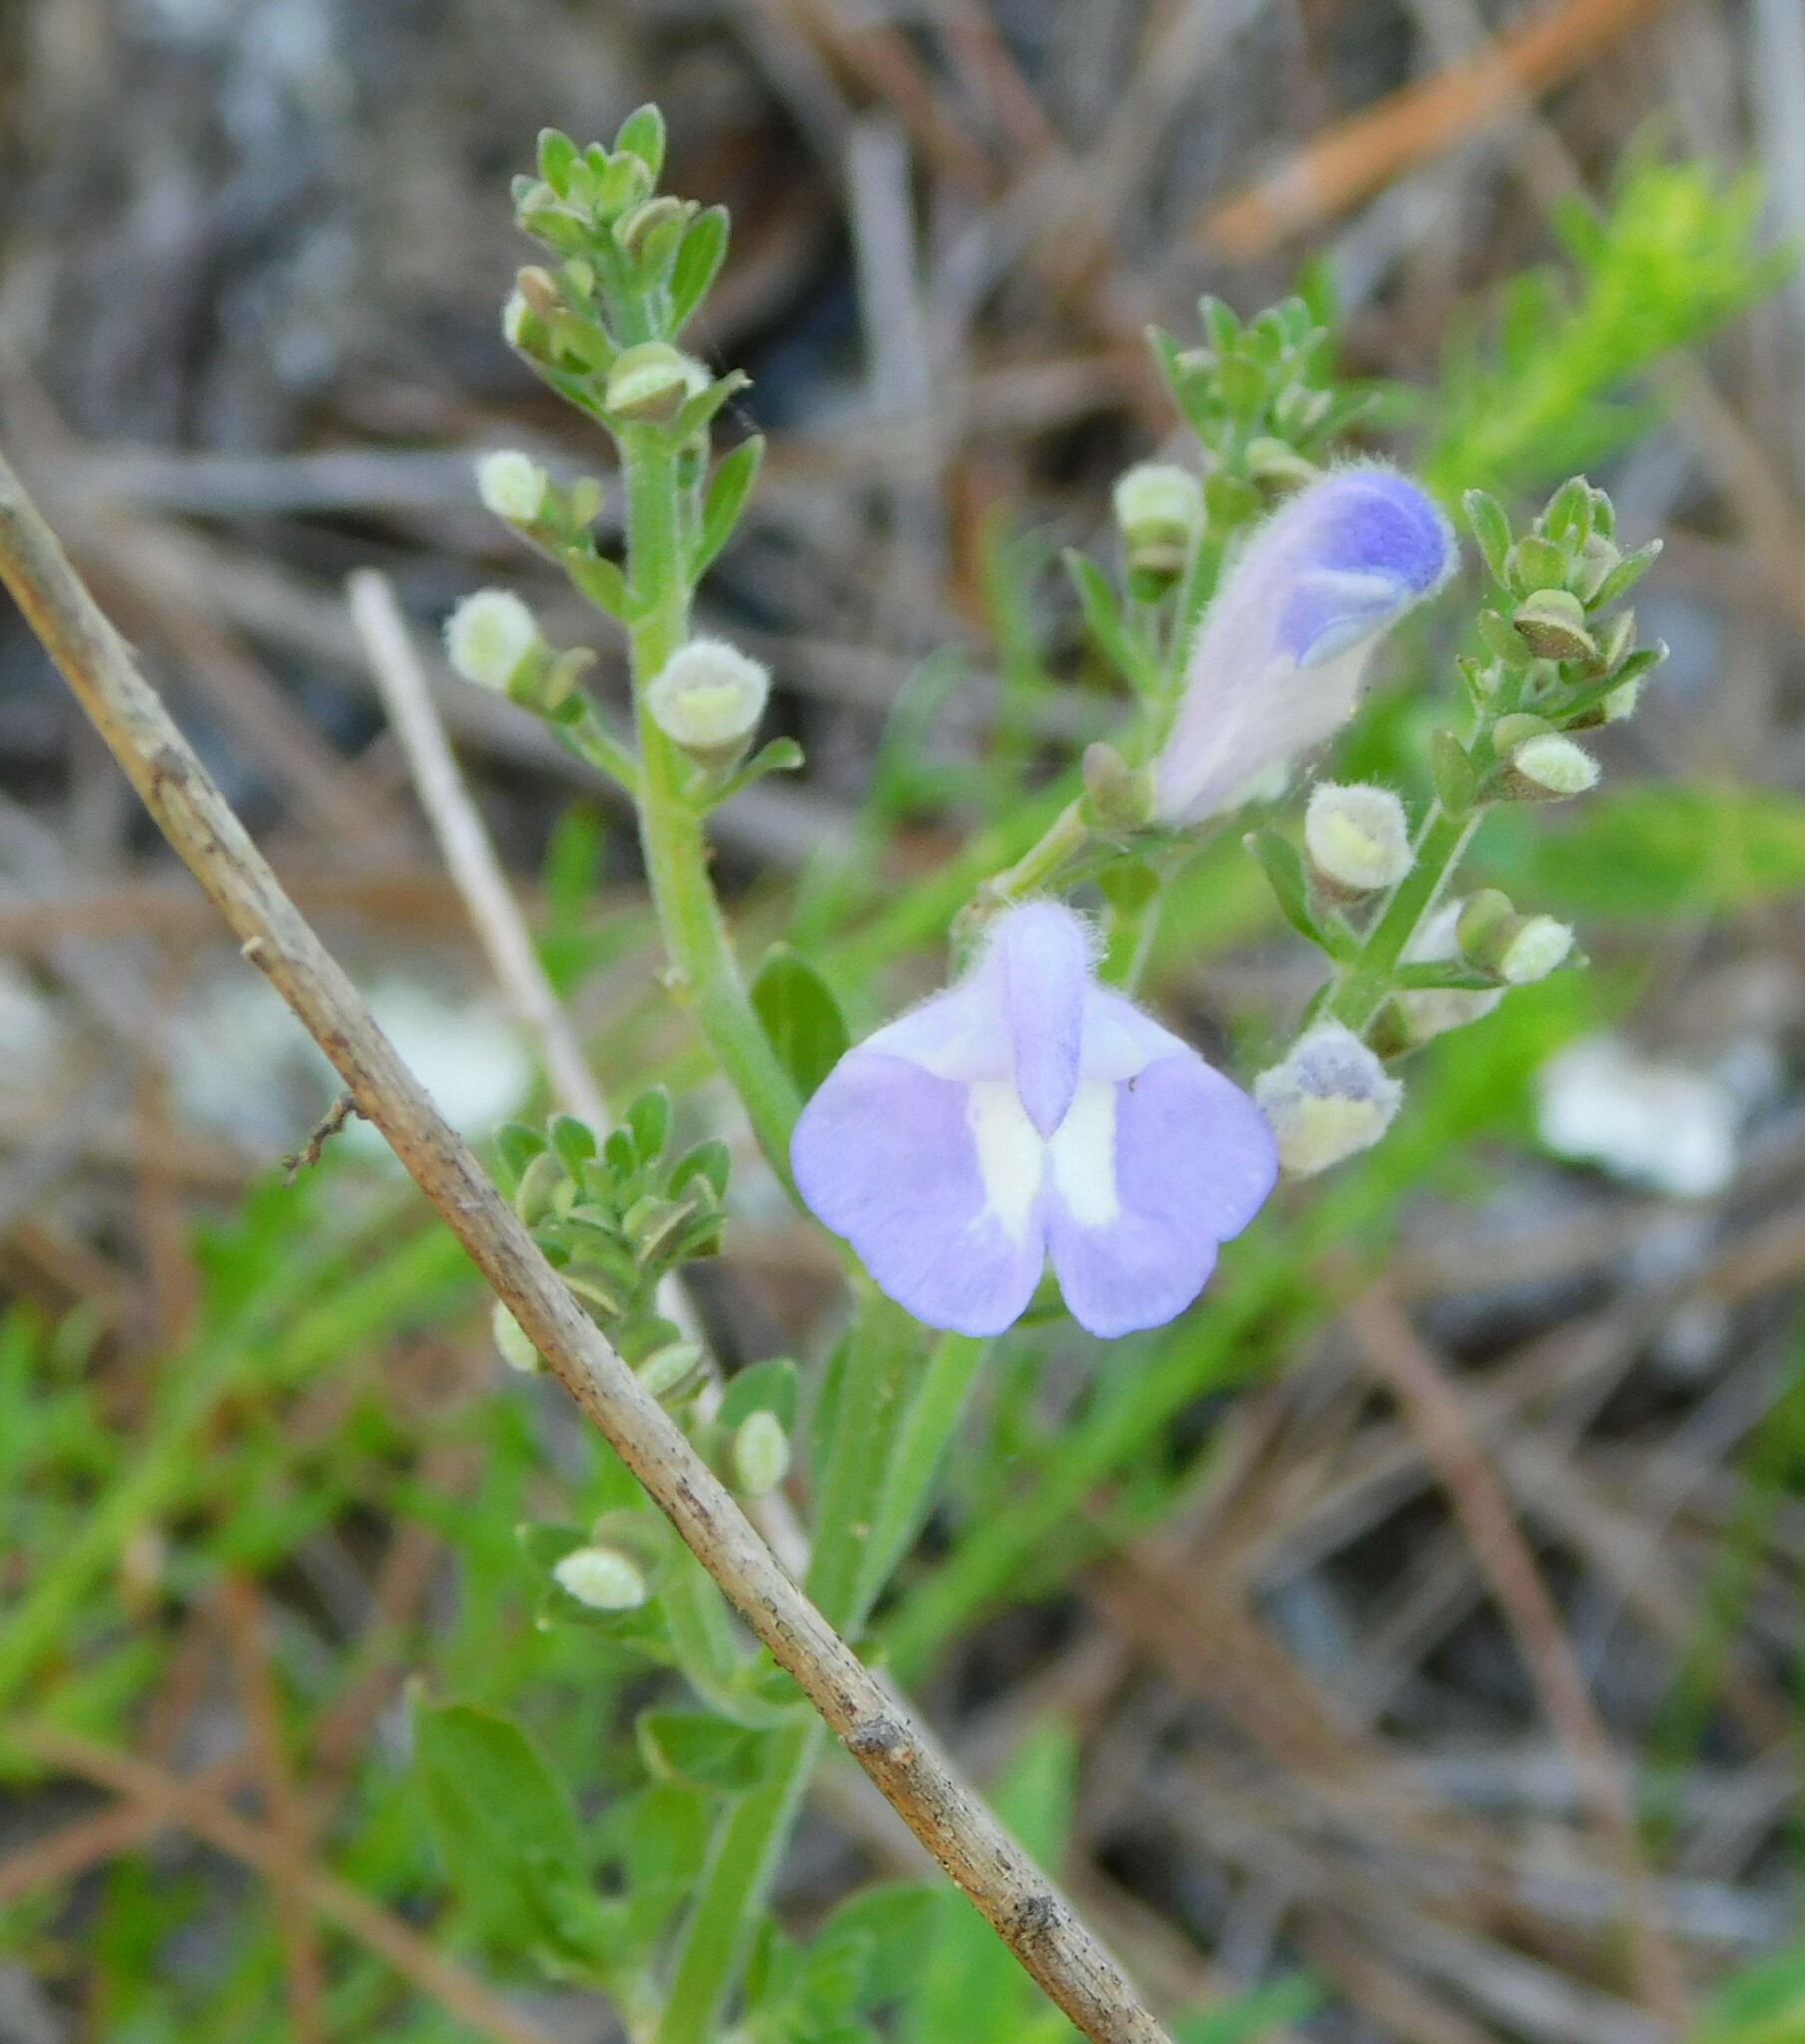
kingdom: Plantae
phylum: Tracheophyta
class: Magnoliopsida
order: Lamiales
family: Lamiaceae
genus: Scutellaria
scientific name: Scutellaria
